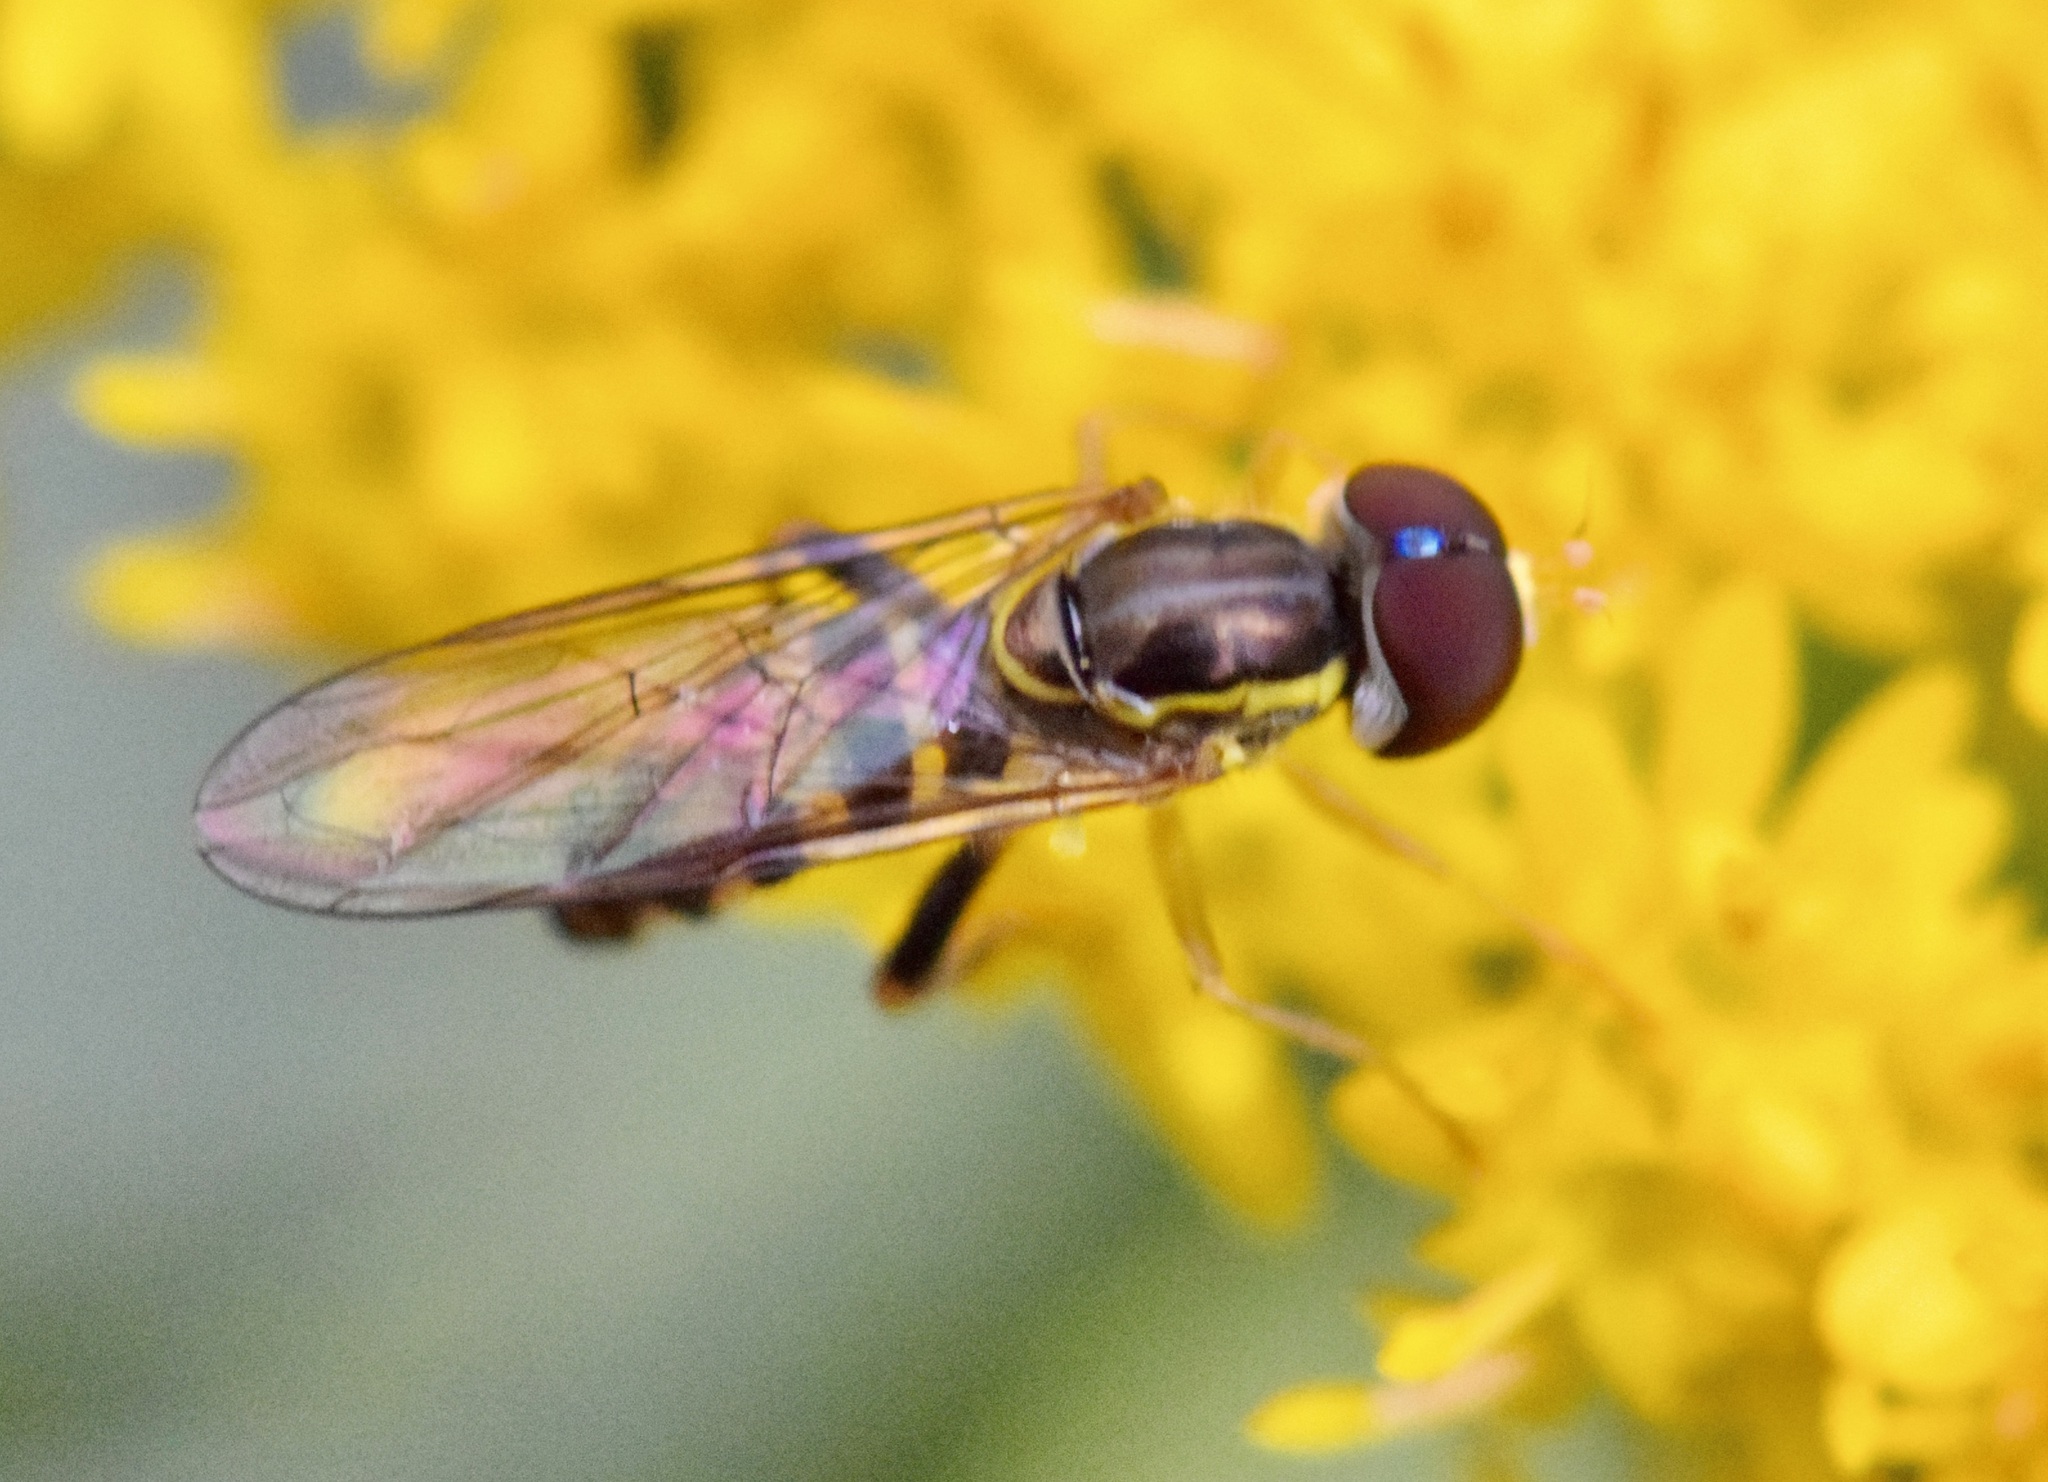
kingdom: Animalia
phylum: Arthropoda
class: Insecta
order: Diptera
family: Syrphidae
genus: Toxomerus
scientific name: Toxomerus geminatus
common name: Eastern calligrapher
